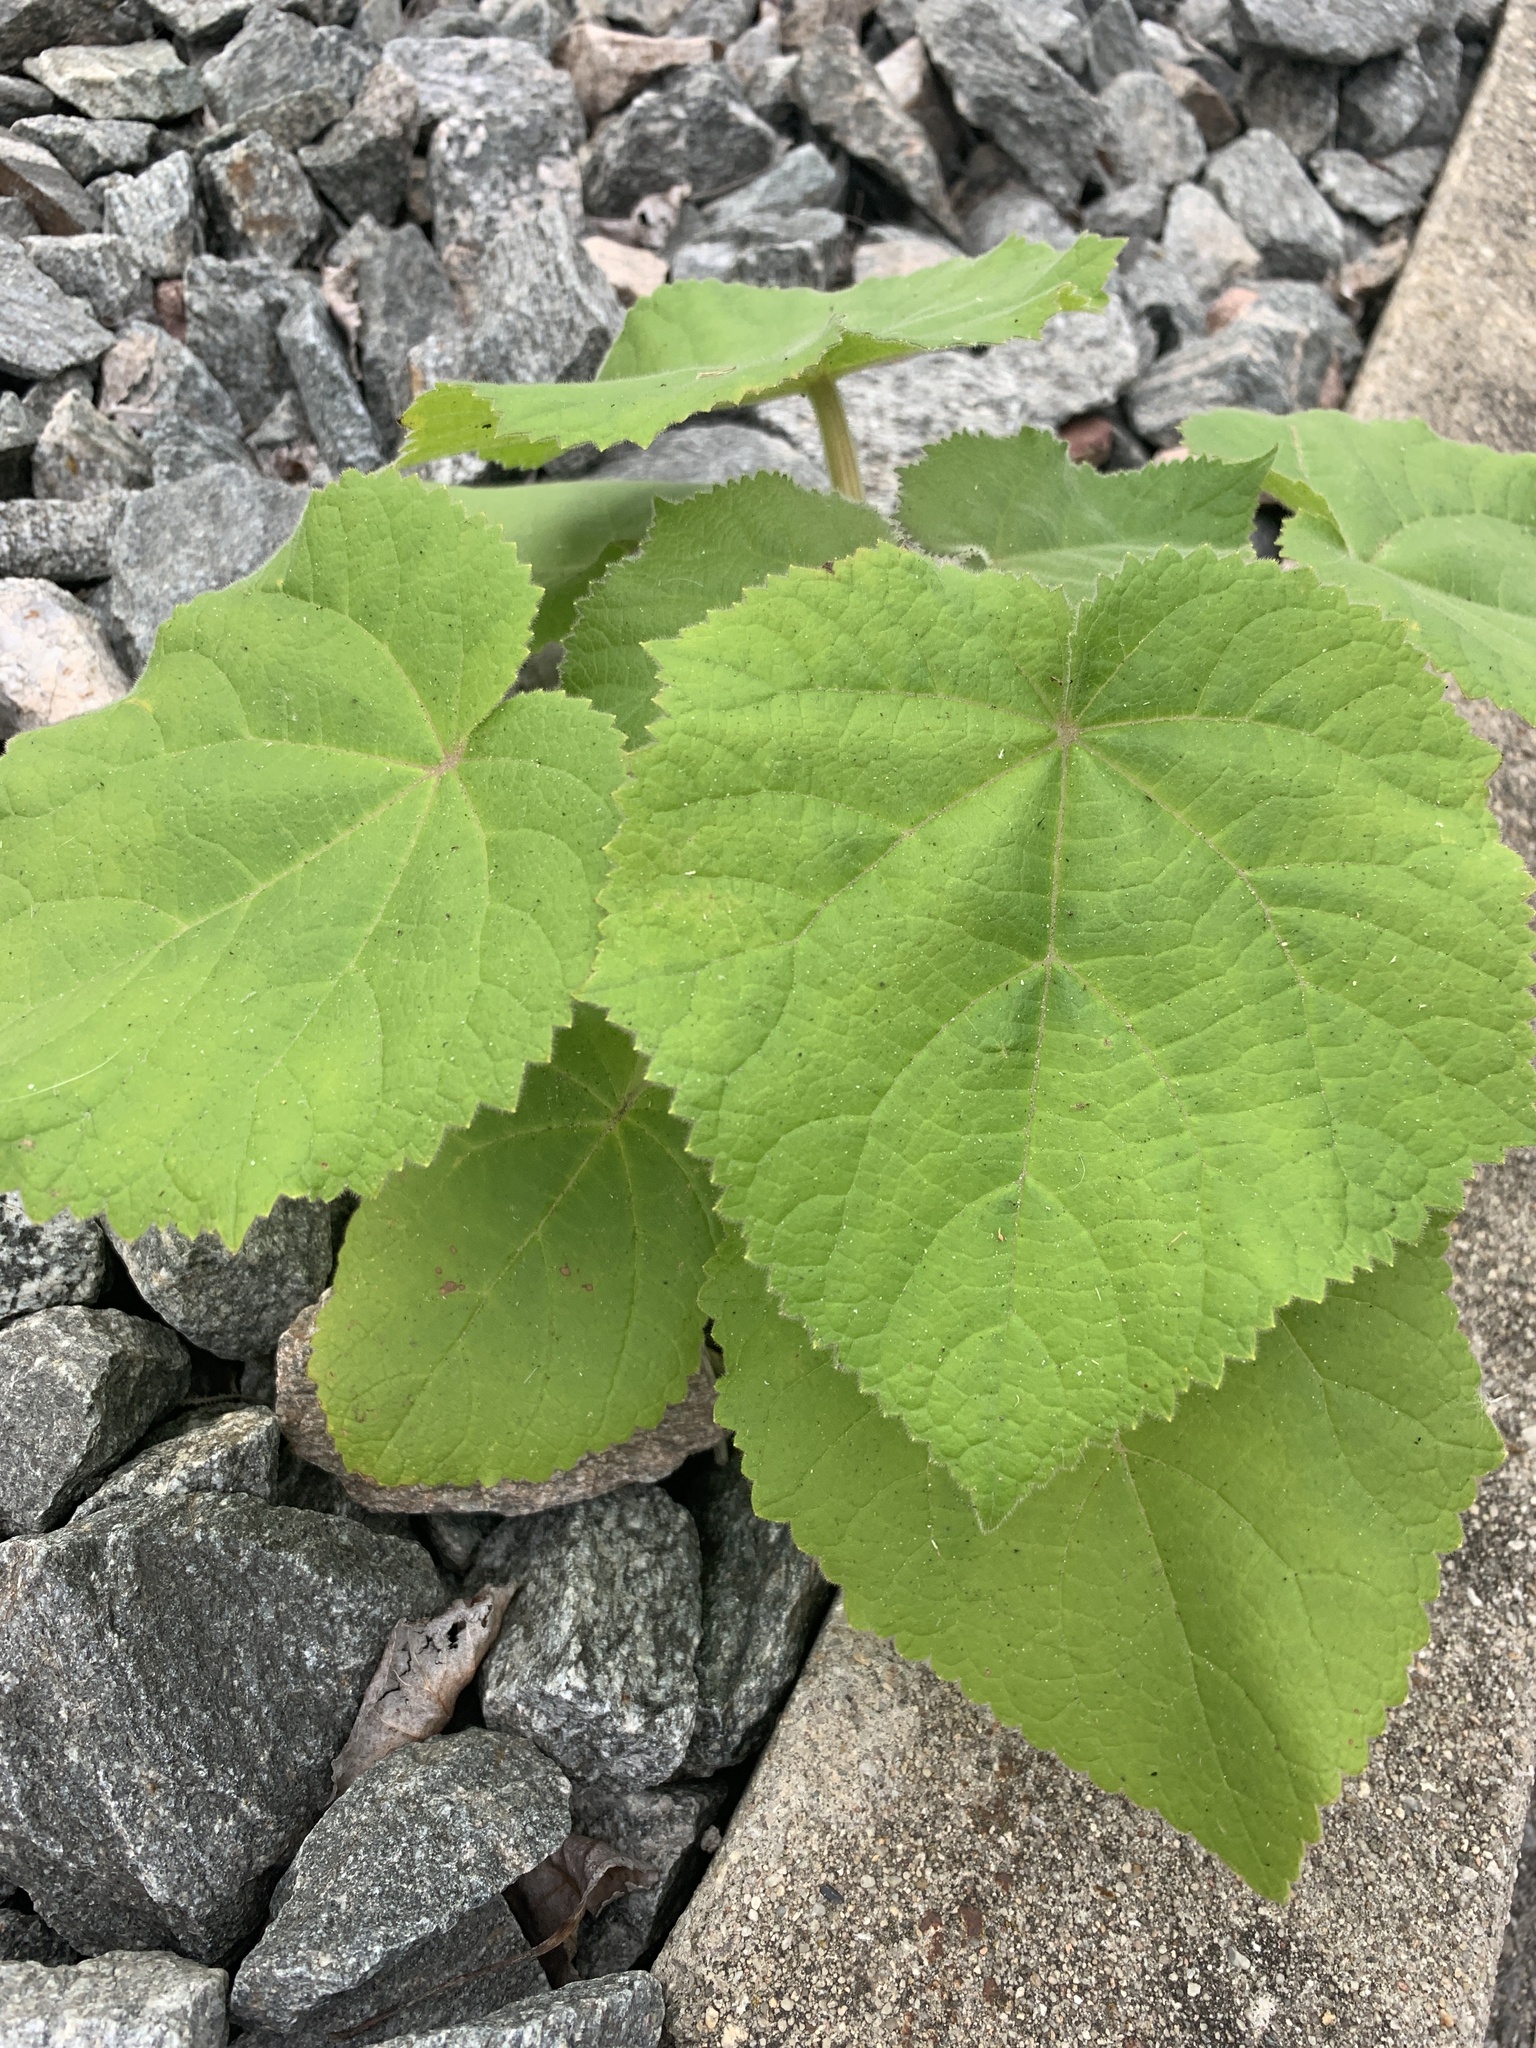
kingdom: Plantae
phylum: Tracheophyta
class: Magnoliopsida
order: Lamiales
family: Paulowniaceae
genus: Paulownia
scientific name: Paulownia tomentosa
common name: Foxglove-tree
